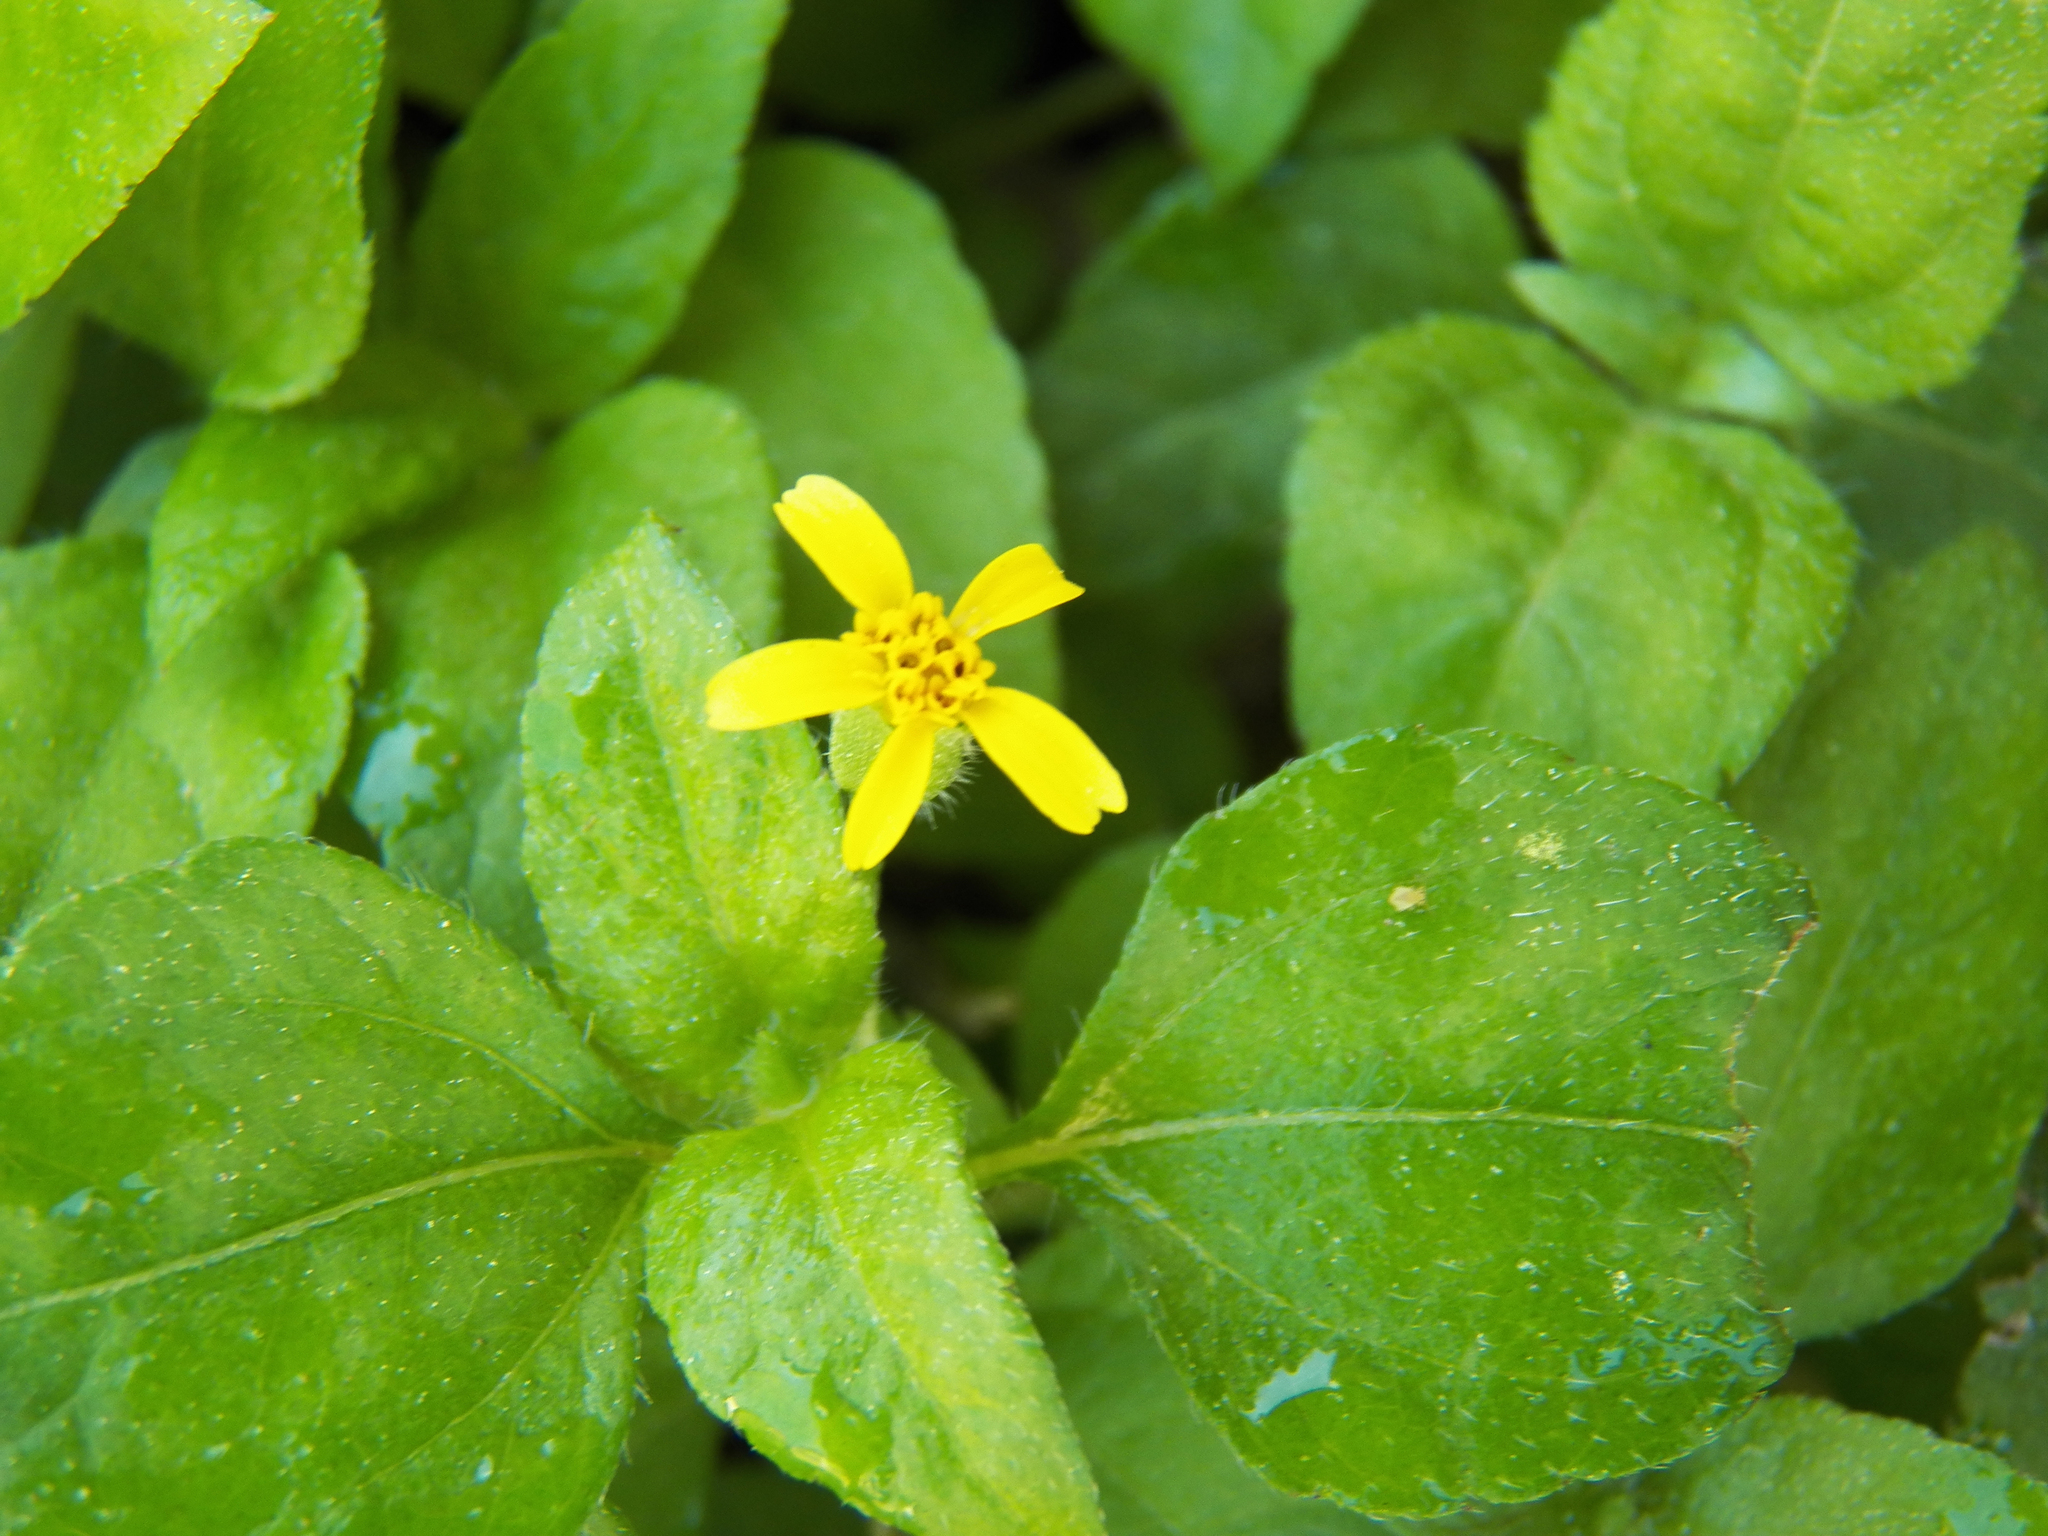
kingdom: Plantae
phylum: Tracheophyta
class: Magnoliopsida
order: Asterales
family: Asteraceae
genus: Calyptocarpus
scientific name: Calyptocarpus vialis
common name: Straggler daisy
